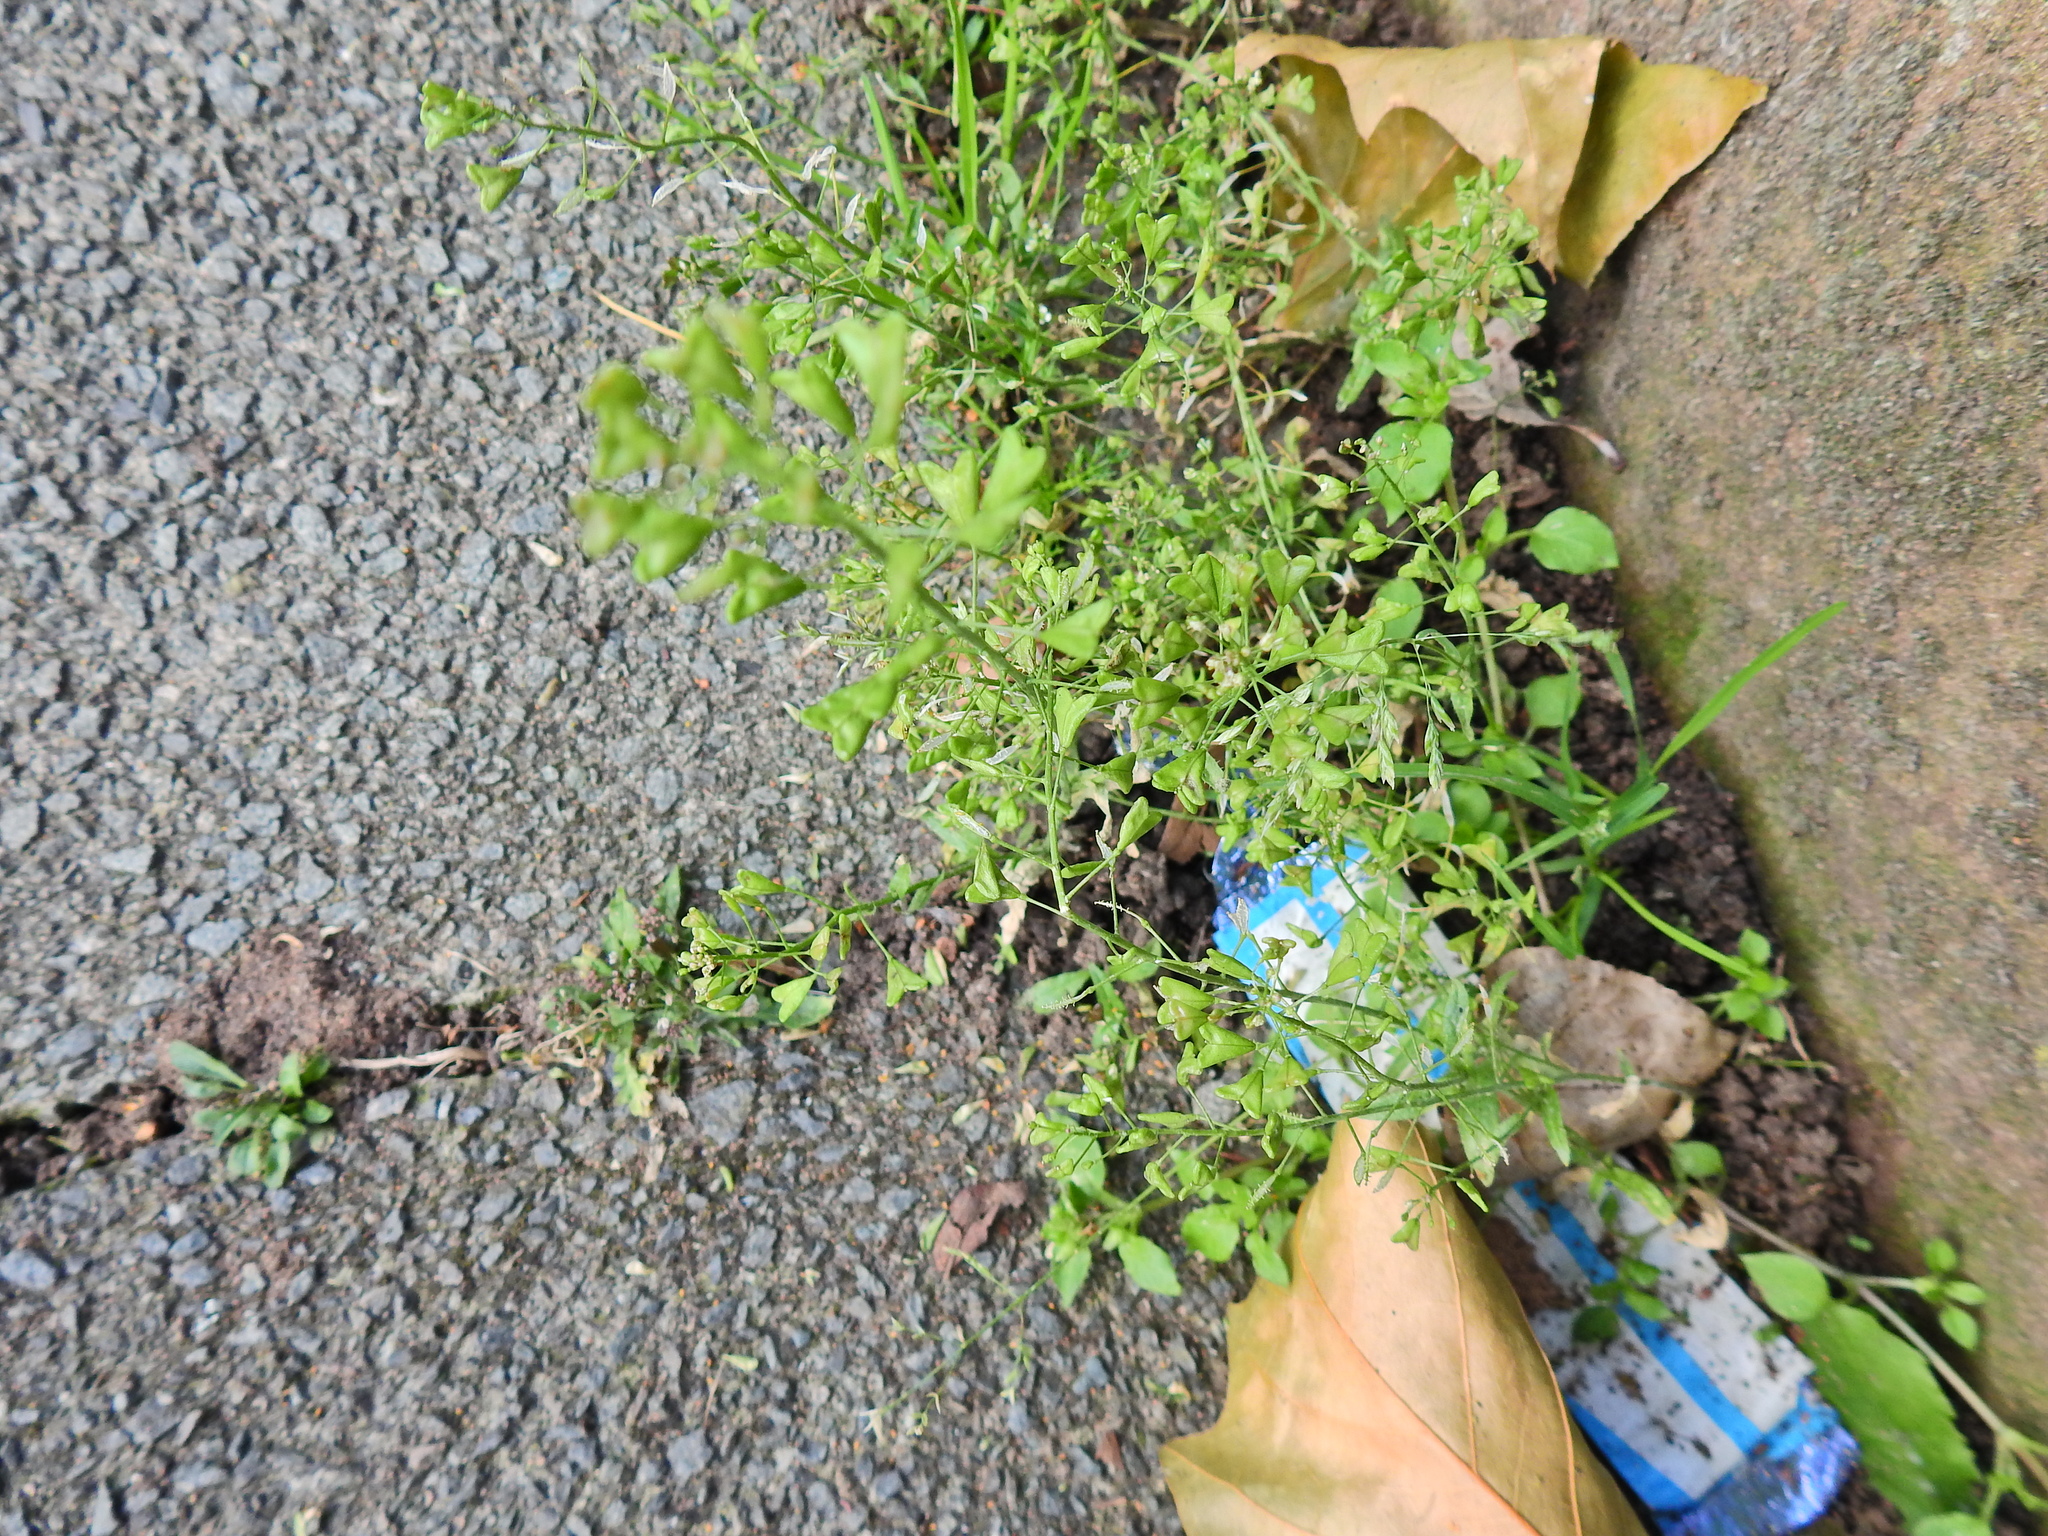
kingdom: Plantae
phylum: Tracheophyta
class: Magnoliopsida
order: Brassicales
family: Brassicaceae
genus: Capsella
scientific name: Capsella bursa-pastoris
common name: Shepherd's purse
